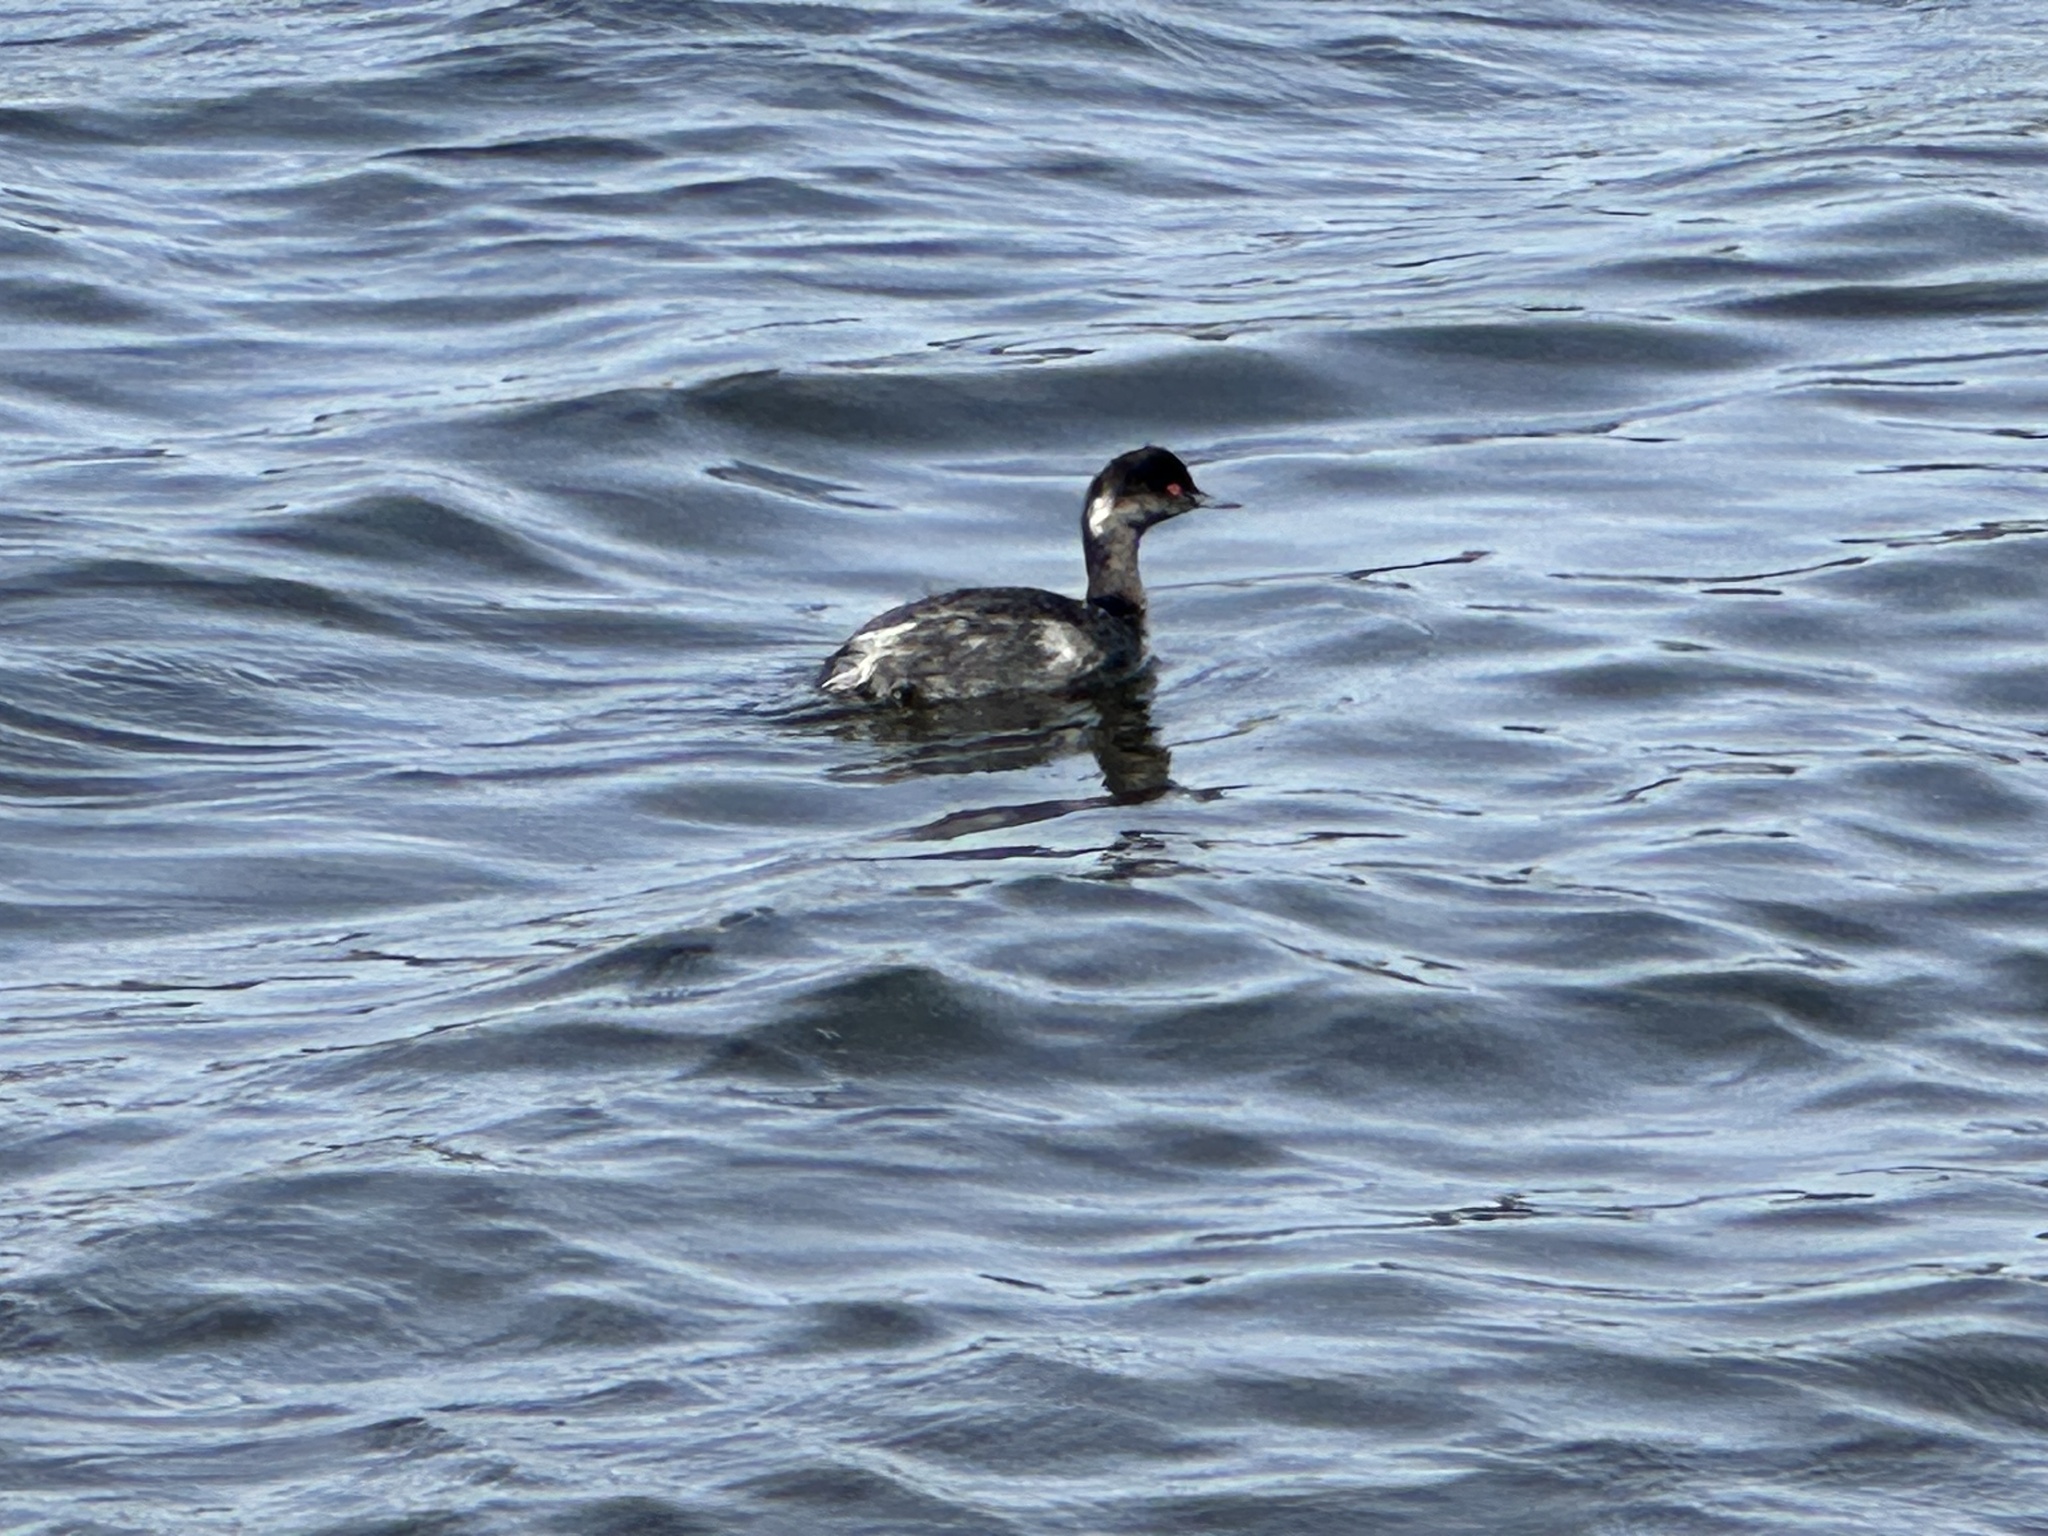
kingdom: Animalia
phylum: Chordata
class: Aves
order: Podicipediformes
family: Podicipedidae
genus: Podiceps
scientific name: Podiceps nigricollis
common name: Black-necked grebe
